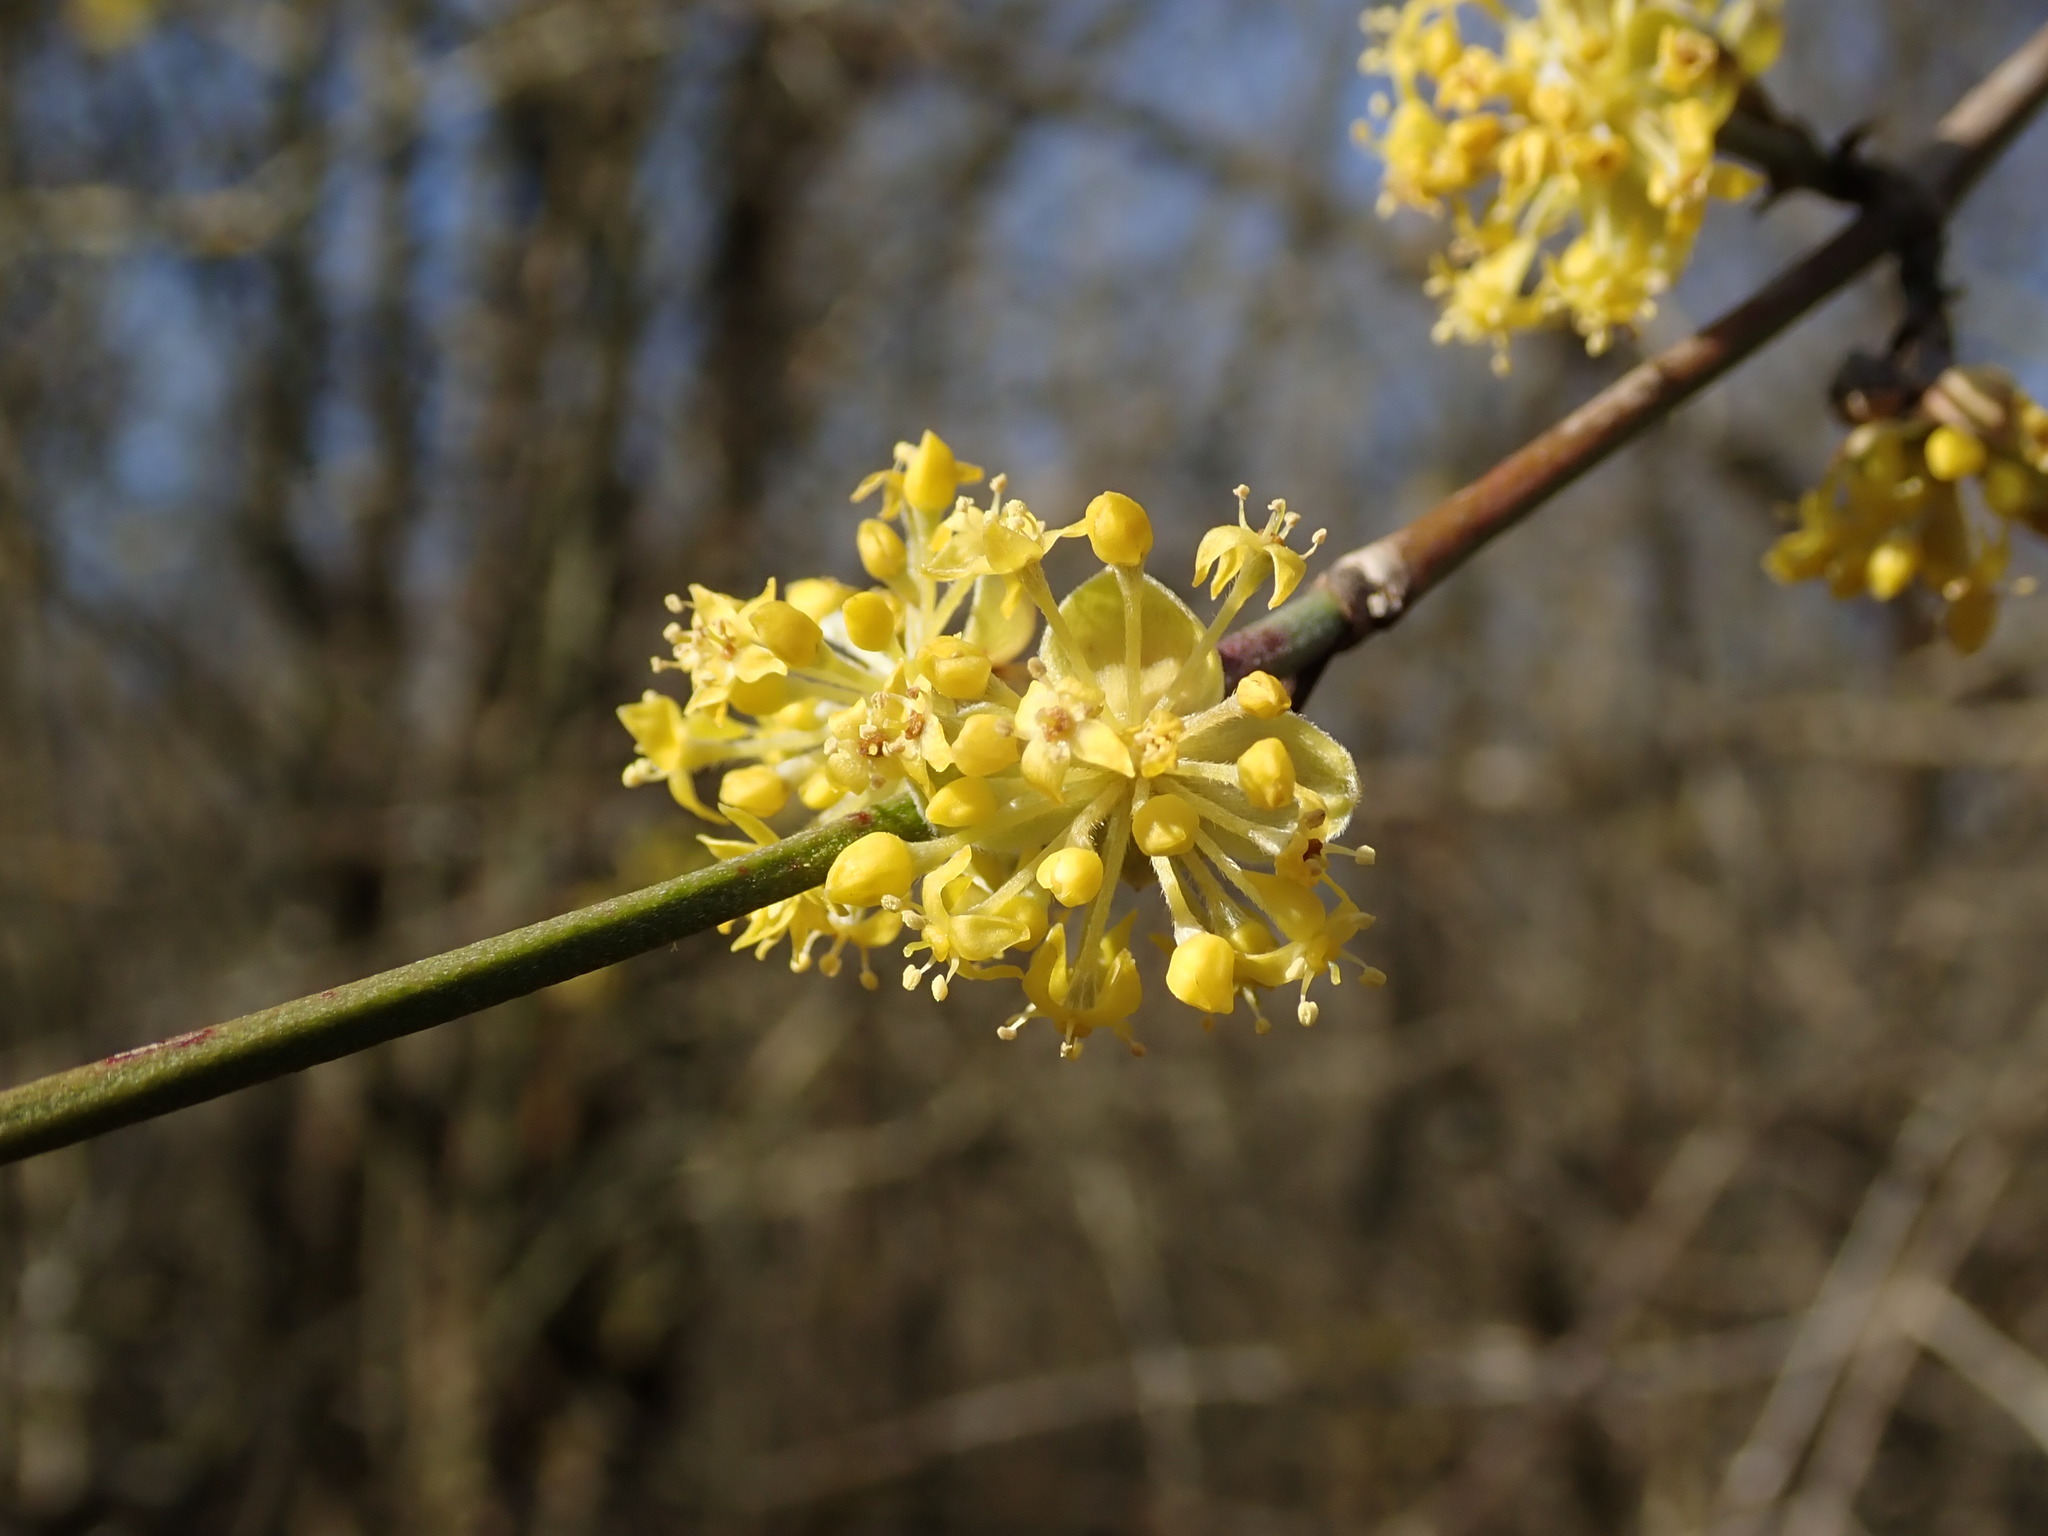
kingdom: Plantae
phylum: Tracheophyta
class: Magnoliopsida
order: Cornales
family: Cornaceae
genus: Cornus
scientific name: Cornus mas
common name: Cornelian-cherry
